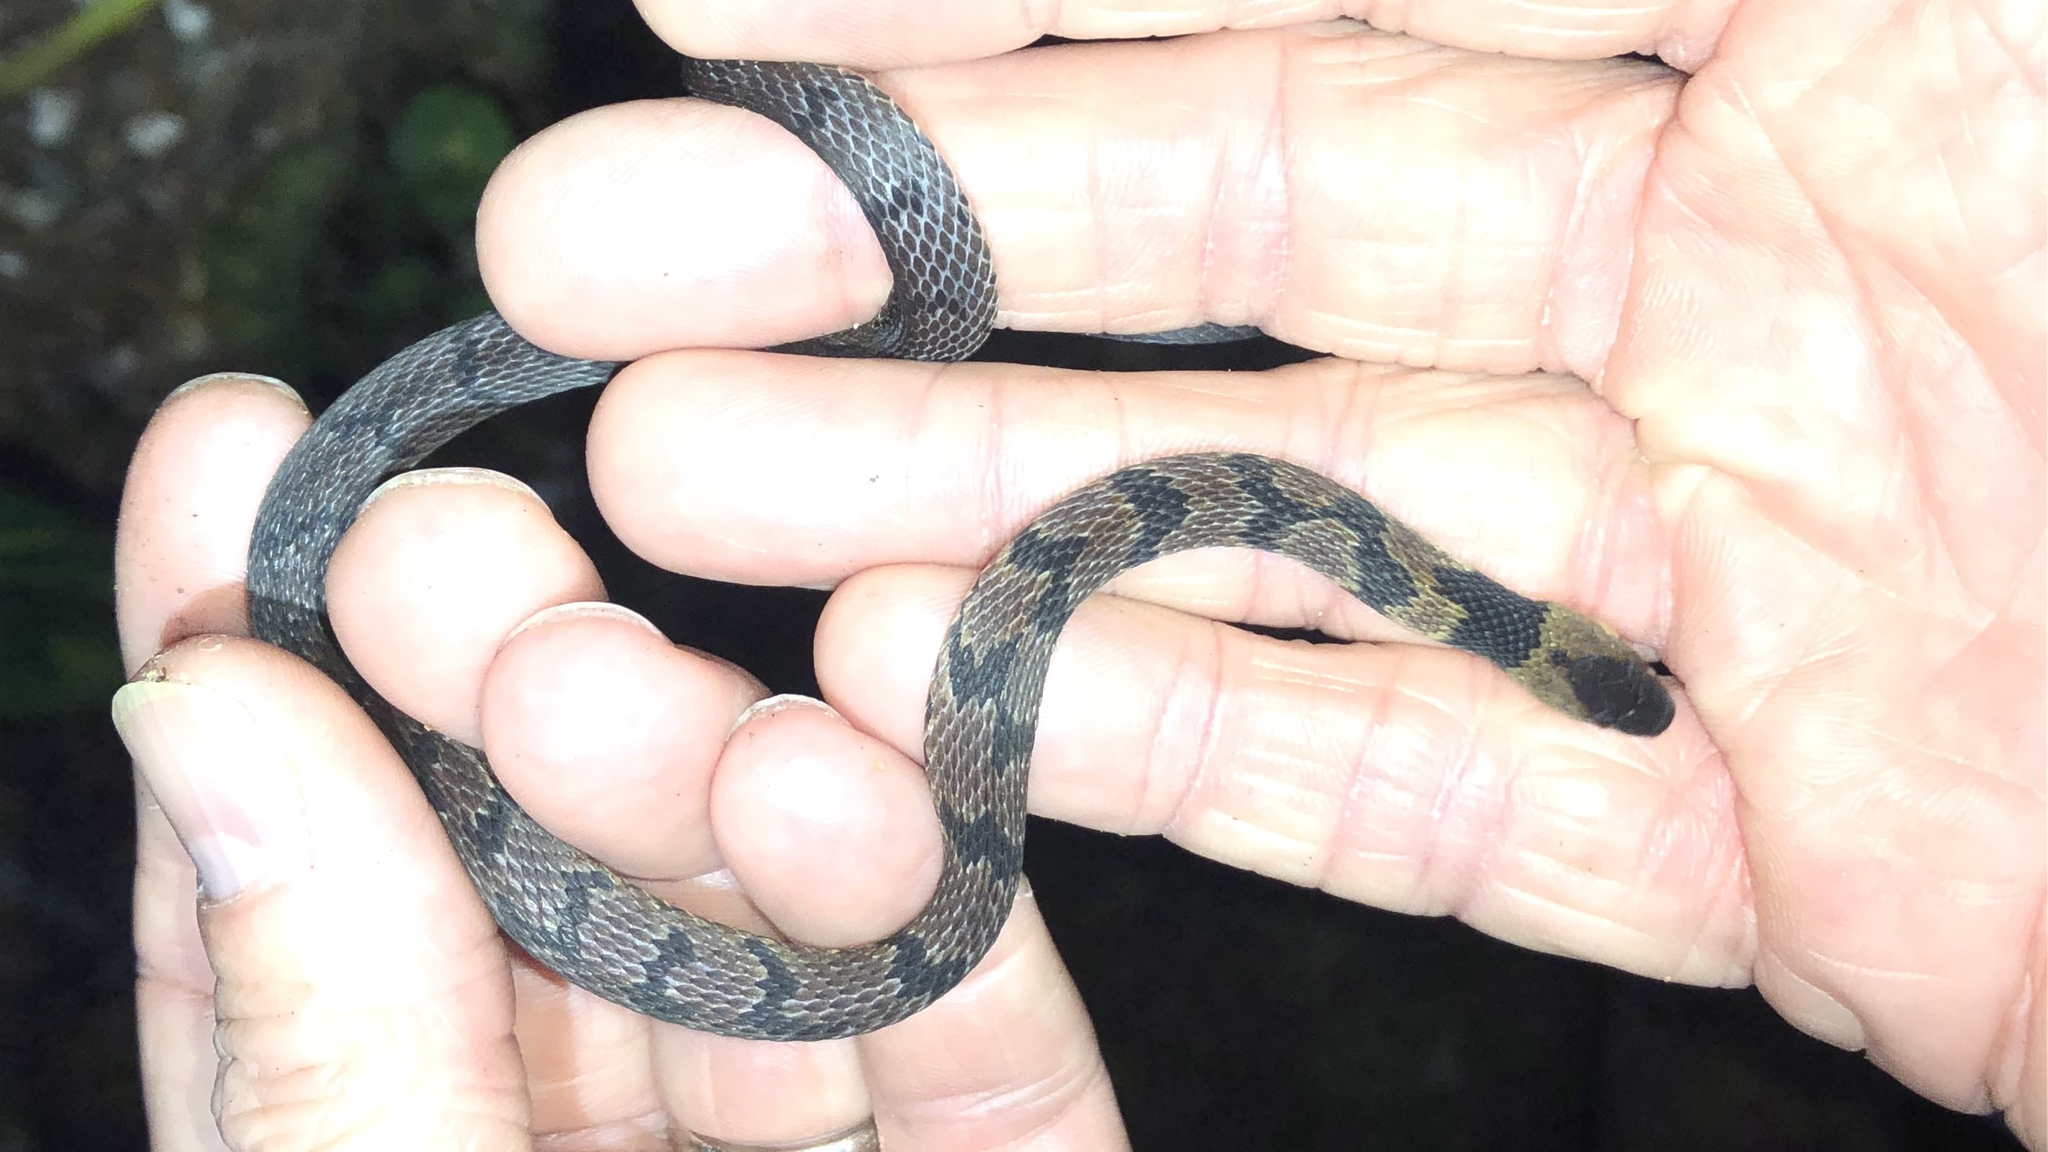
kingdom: Animalia
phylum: Chordata
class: Squamata
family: Colubridae
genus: Ninia
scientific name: Ninia maculata
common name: Spotted coffee snake
